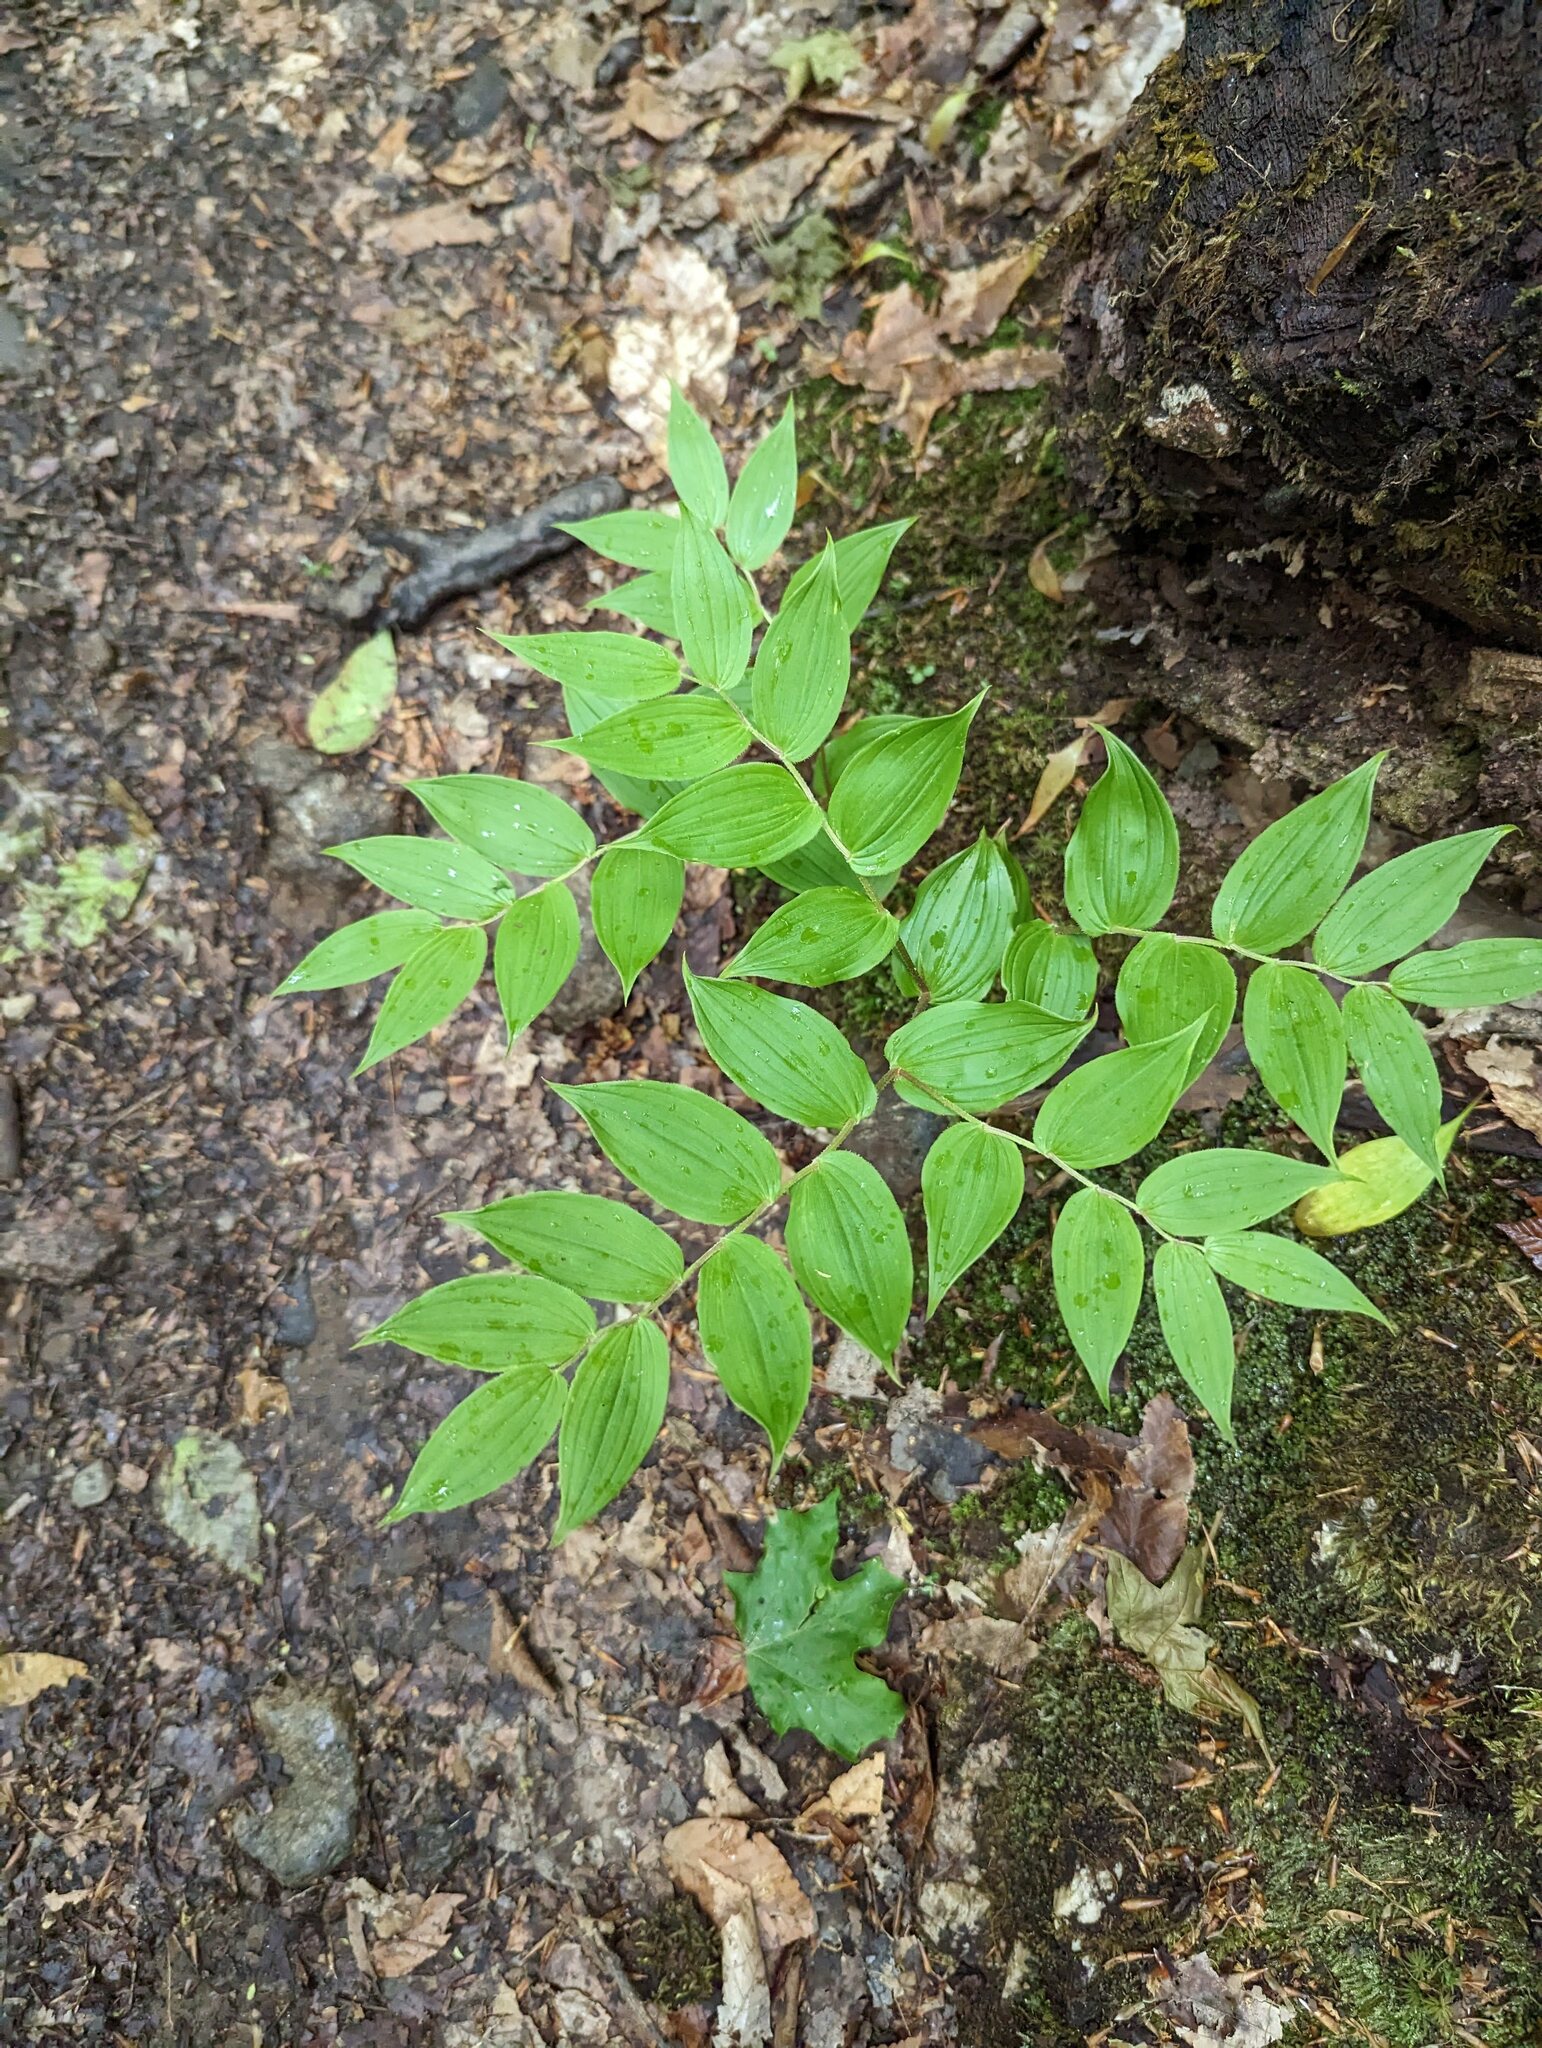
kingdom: Plantae
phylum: Tracheophyta
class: Liliopsida
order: Liliales
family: Liliaceae
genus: Streptopus
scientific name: Streptopus lanceolatus
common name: Rose mandarin
